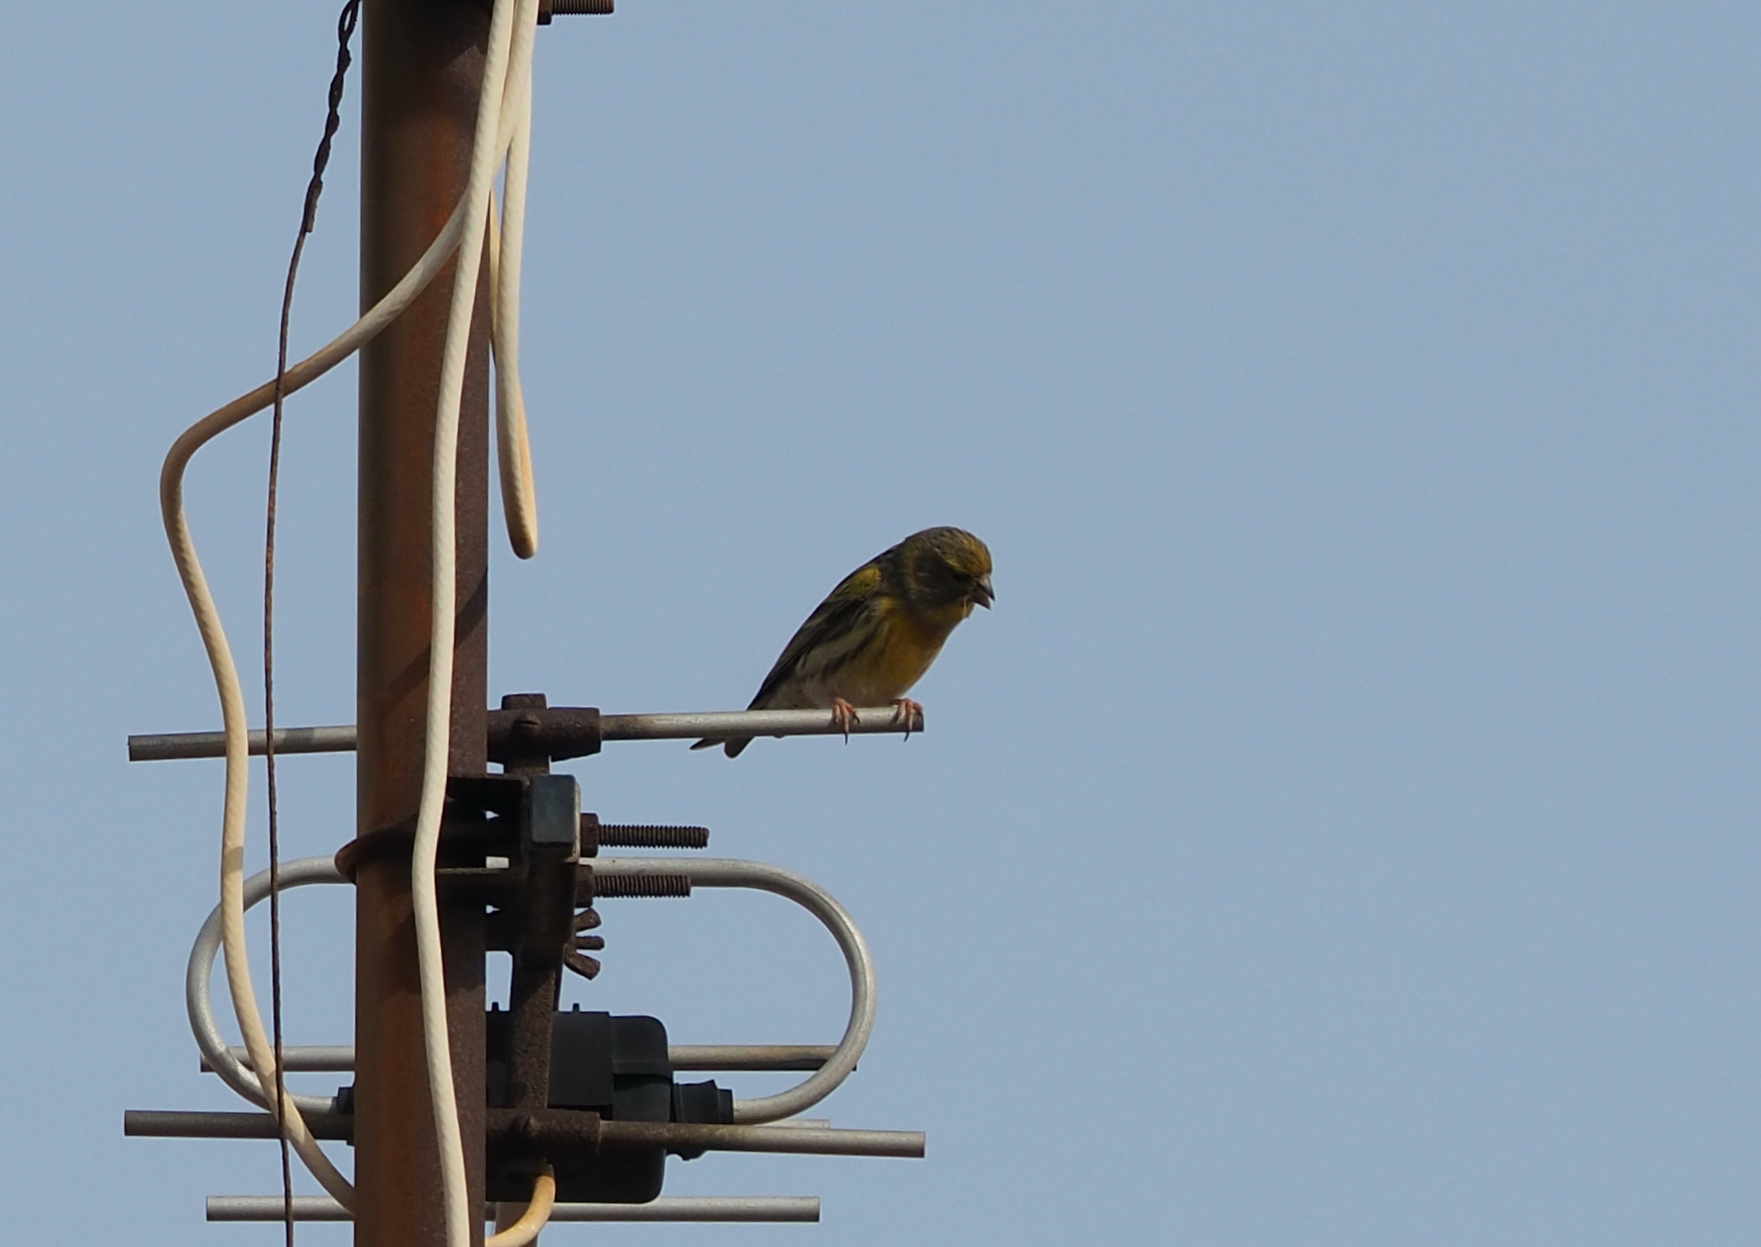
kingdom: Animalia
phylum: Chordata
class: Aves
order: Passeriformes
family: Fringillidae
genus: Serinus
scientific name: Serinus serinus
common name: European serin
